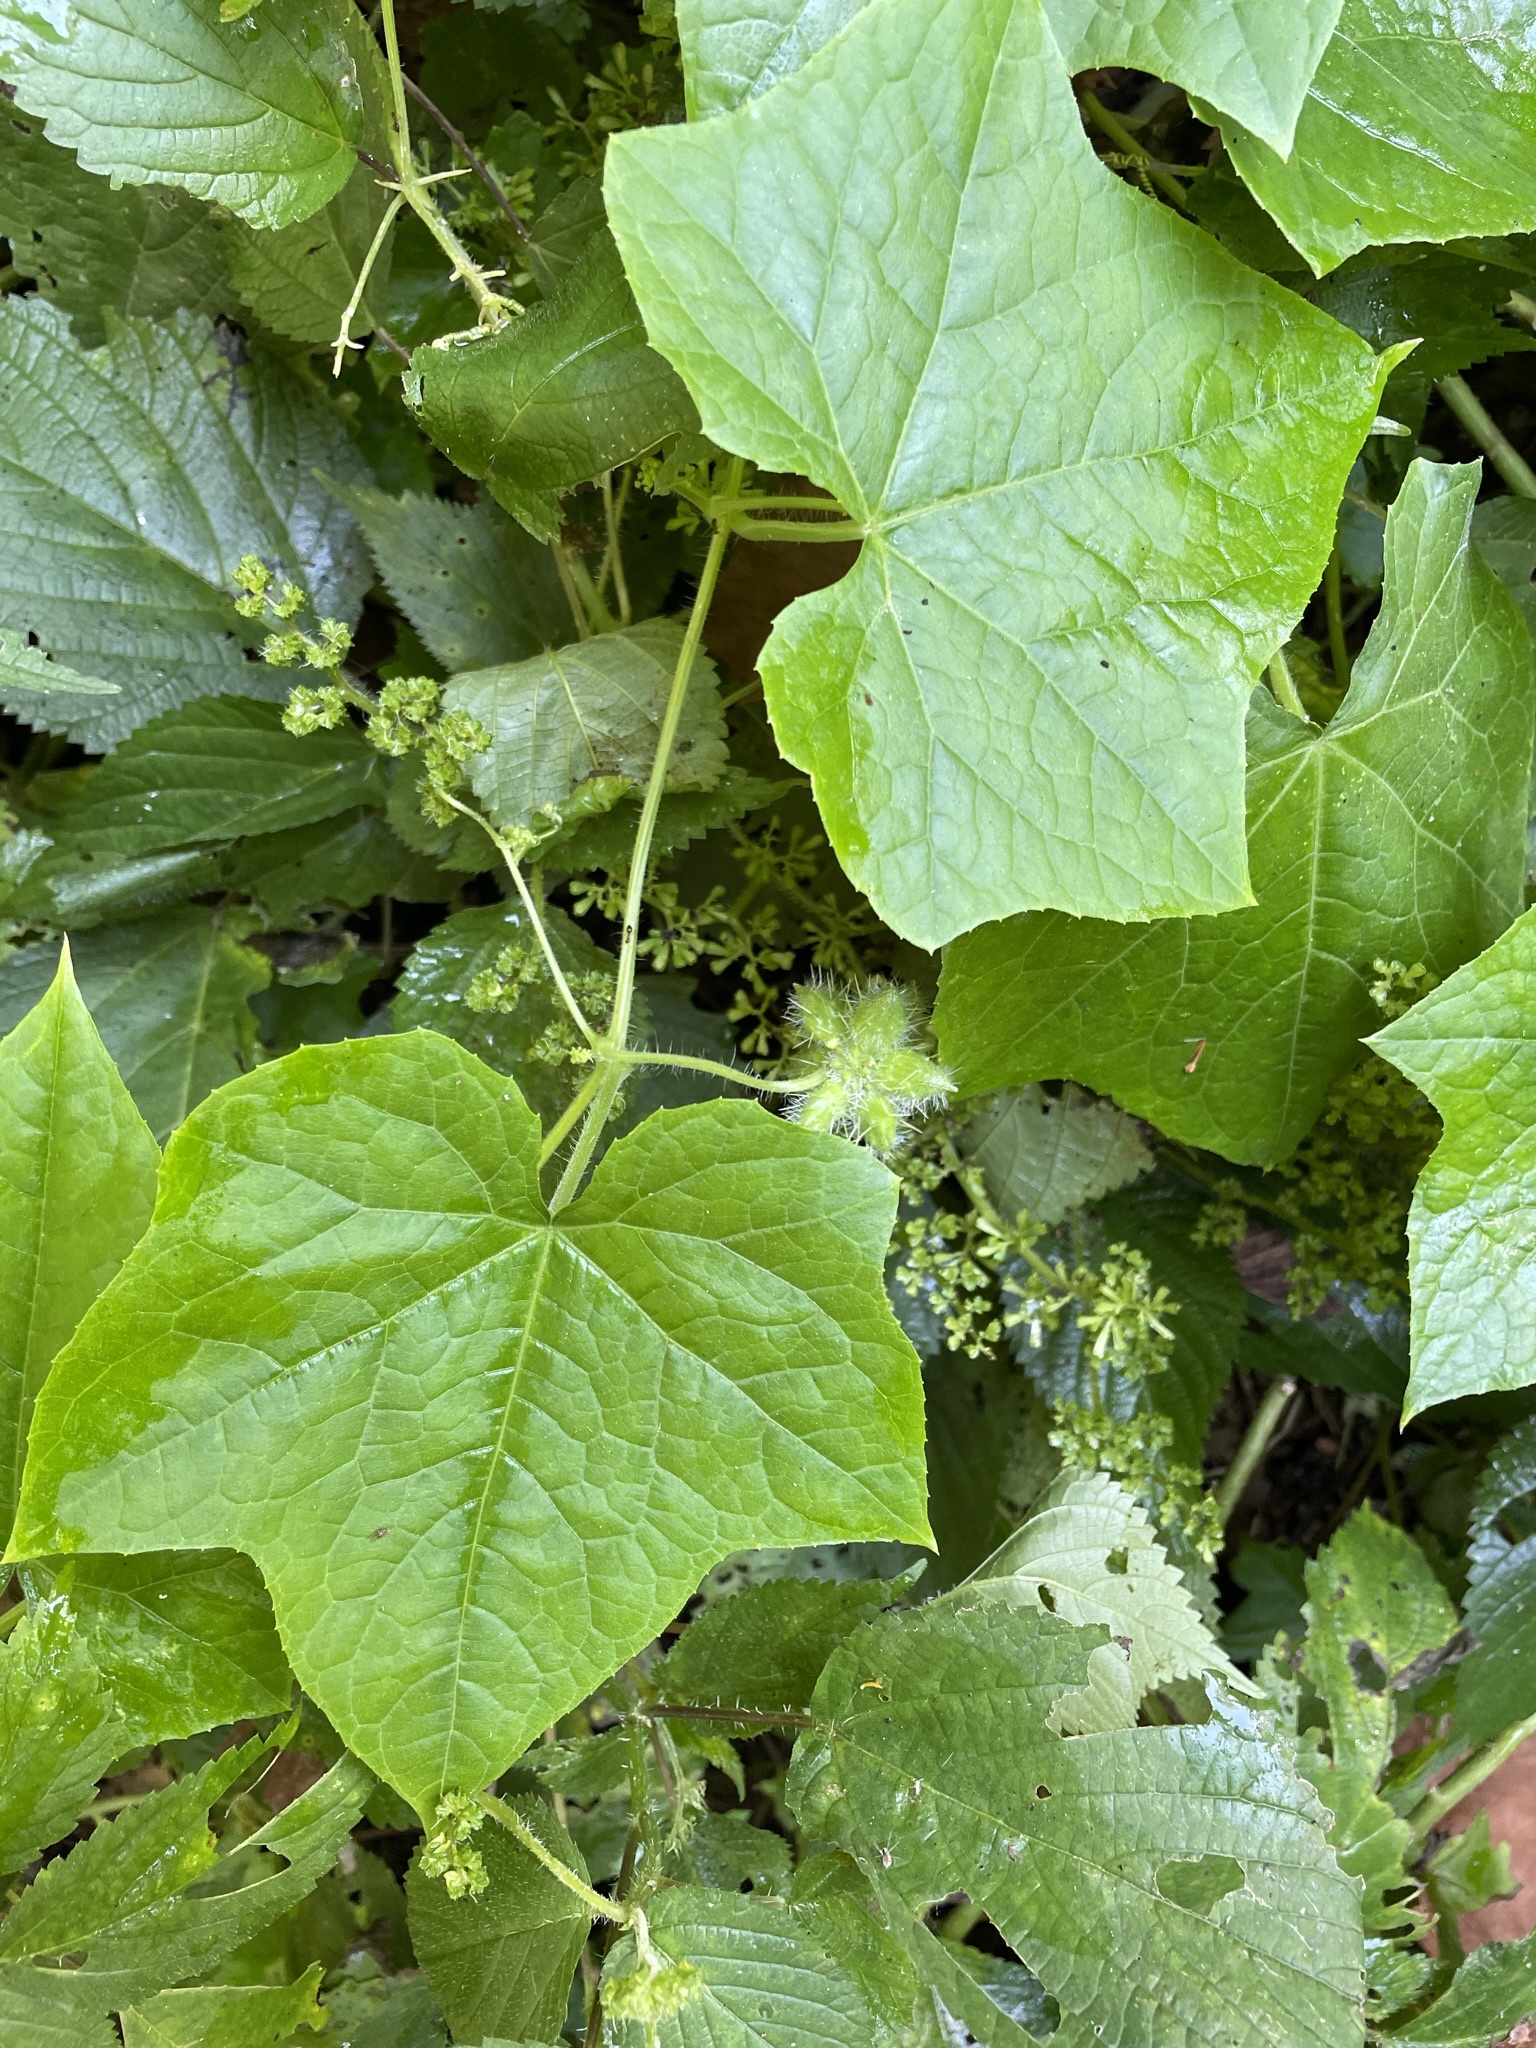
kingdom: Plantae
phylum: Tracheophyta
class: Magnoliopsida
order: Cucurbitales
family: Cucurbitaceae
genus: Sicyos
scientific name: Sicyos angulatus
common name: Angled burr cucumber
